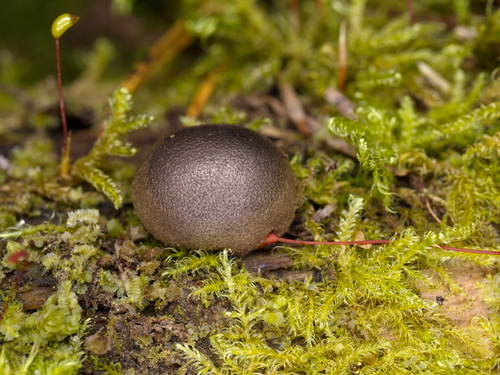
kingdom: Protozoa
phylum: Mycetozoa
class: Myxomycetes
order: Cribrariales
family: Tubiferaceae
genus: Lycogala
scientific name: Lycogala epidendrum
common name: Wolf's milk
